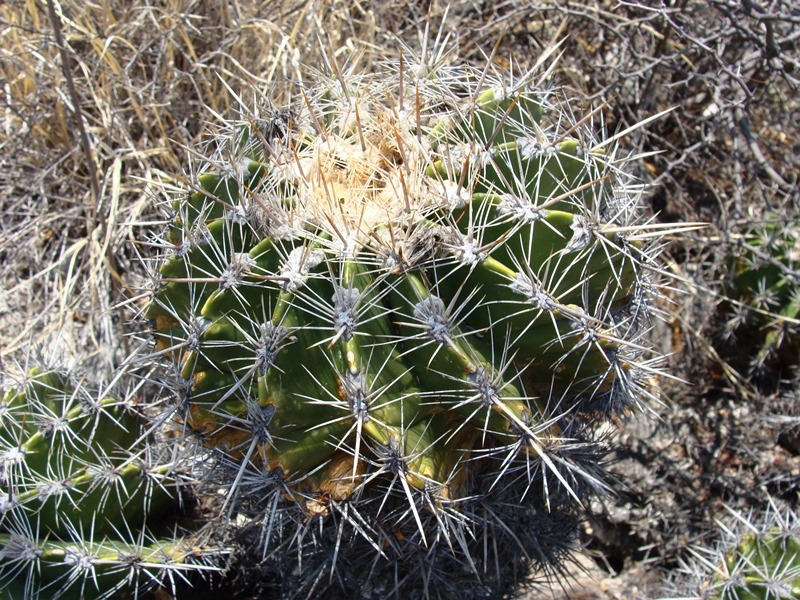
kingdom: Plantae
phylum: Tracheophyta
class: Magnoliopsida
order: Caryophyllales
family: Cactaceae
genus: Parrycactus
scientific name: Parrycactus flavovirens
